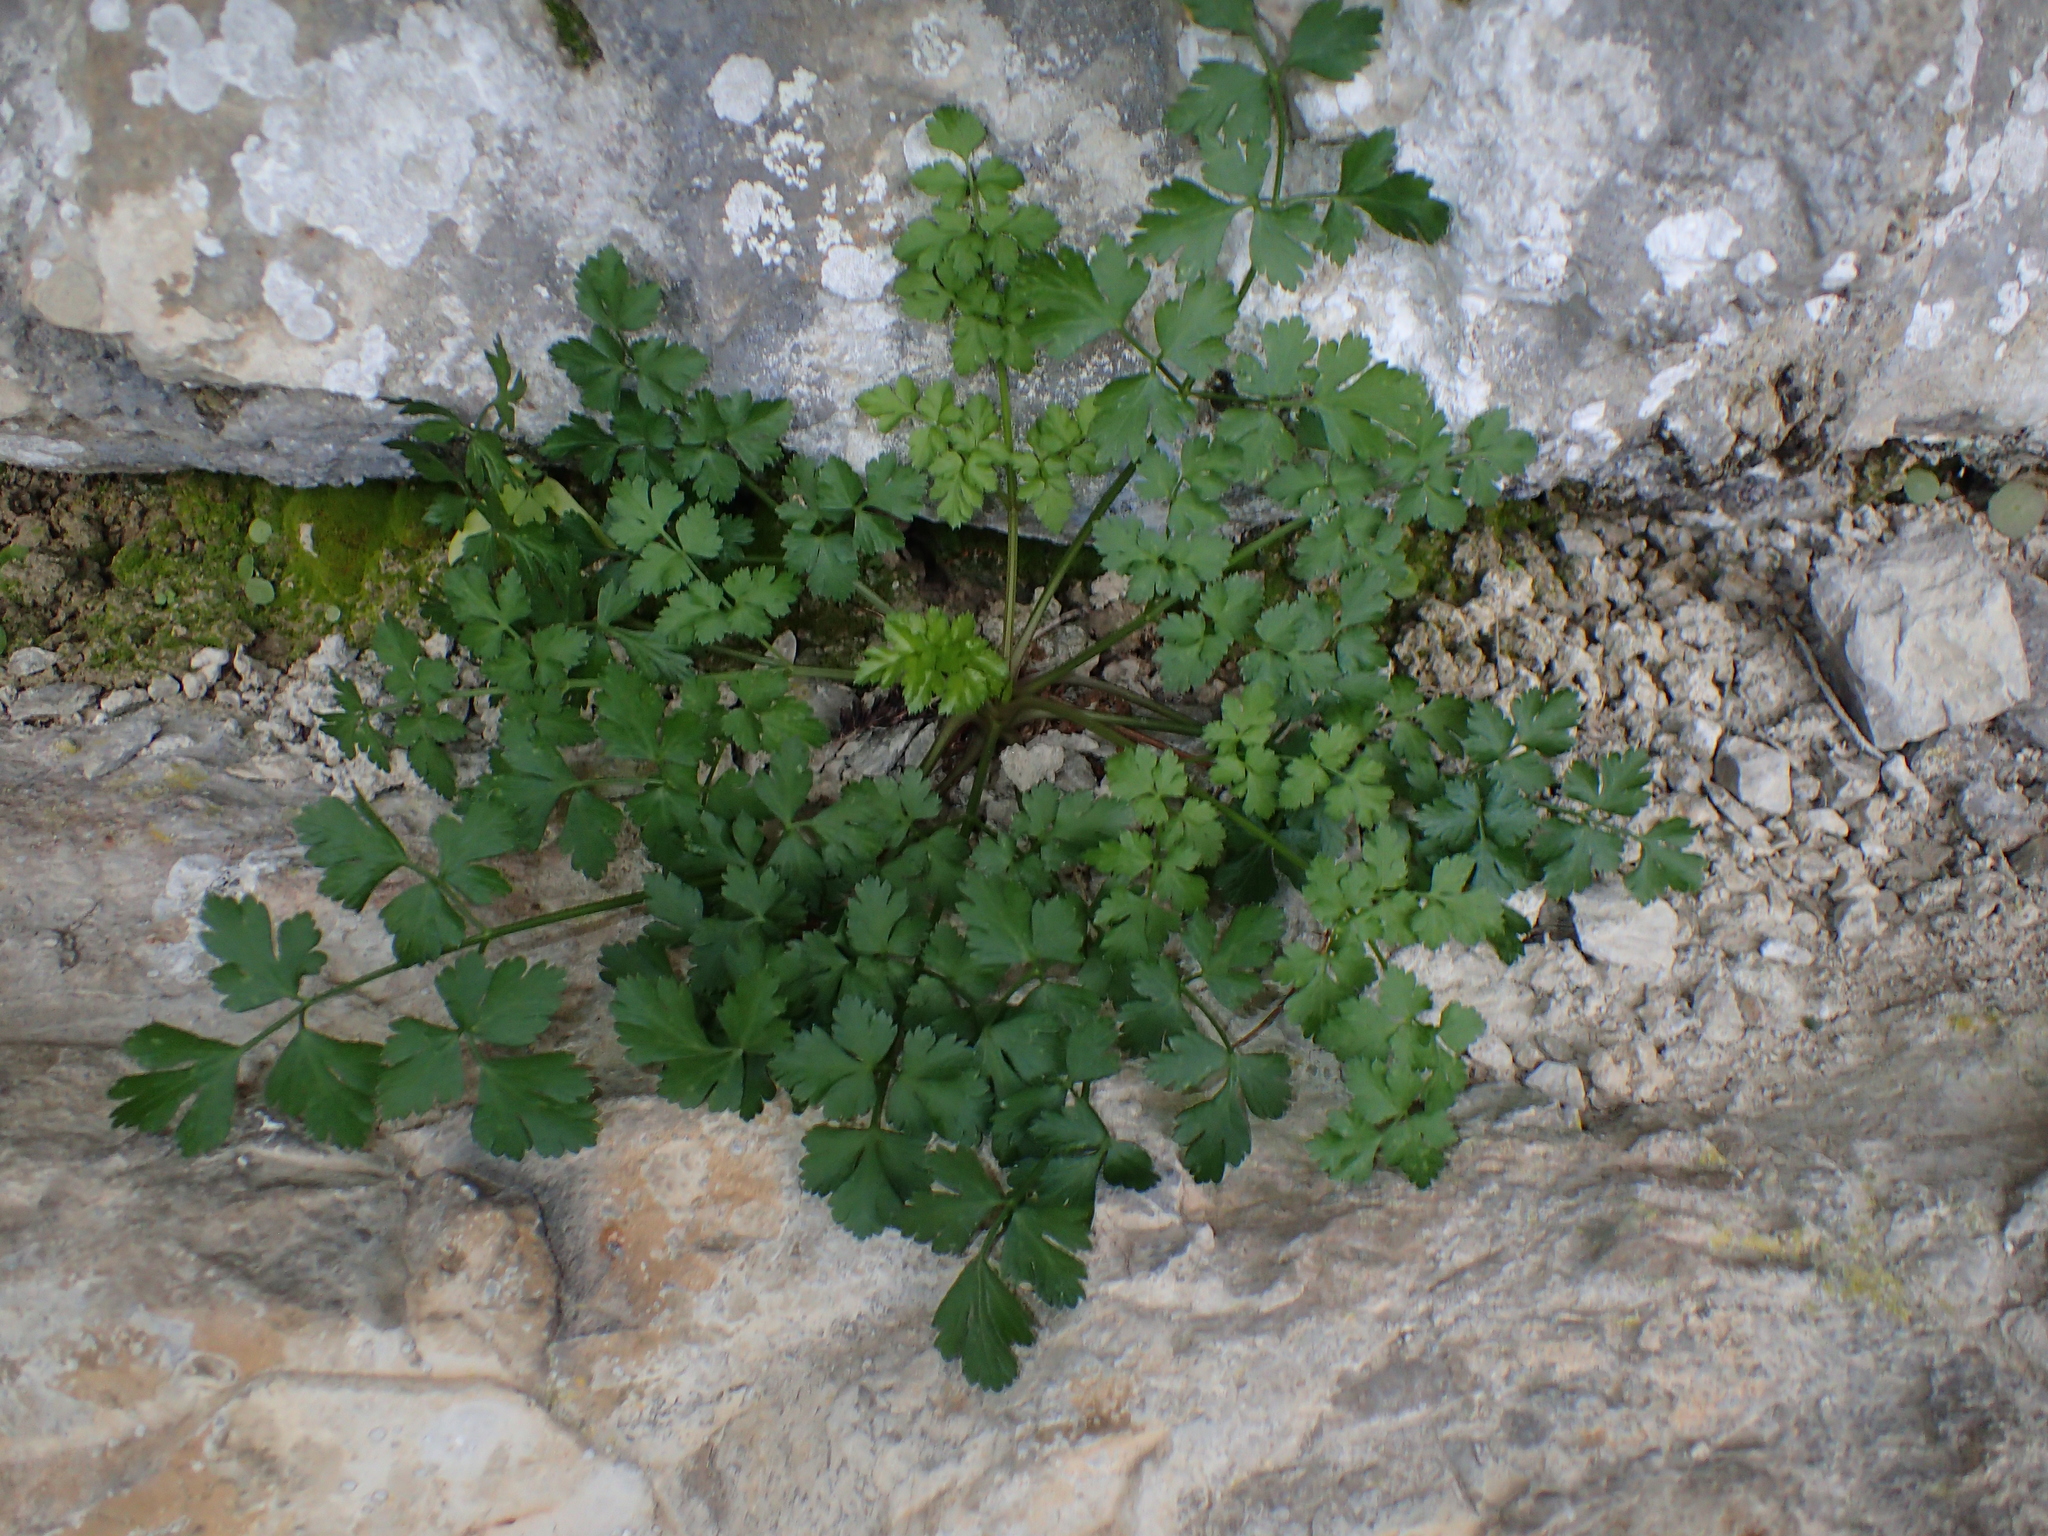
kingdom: Plantae
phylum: Tracheophyta
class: Magnoliopsida
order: Apiales
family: Apiaceae
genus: Petroselinum
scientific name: Petroselinum crispum
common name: Parsley
